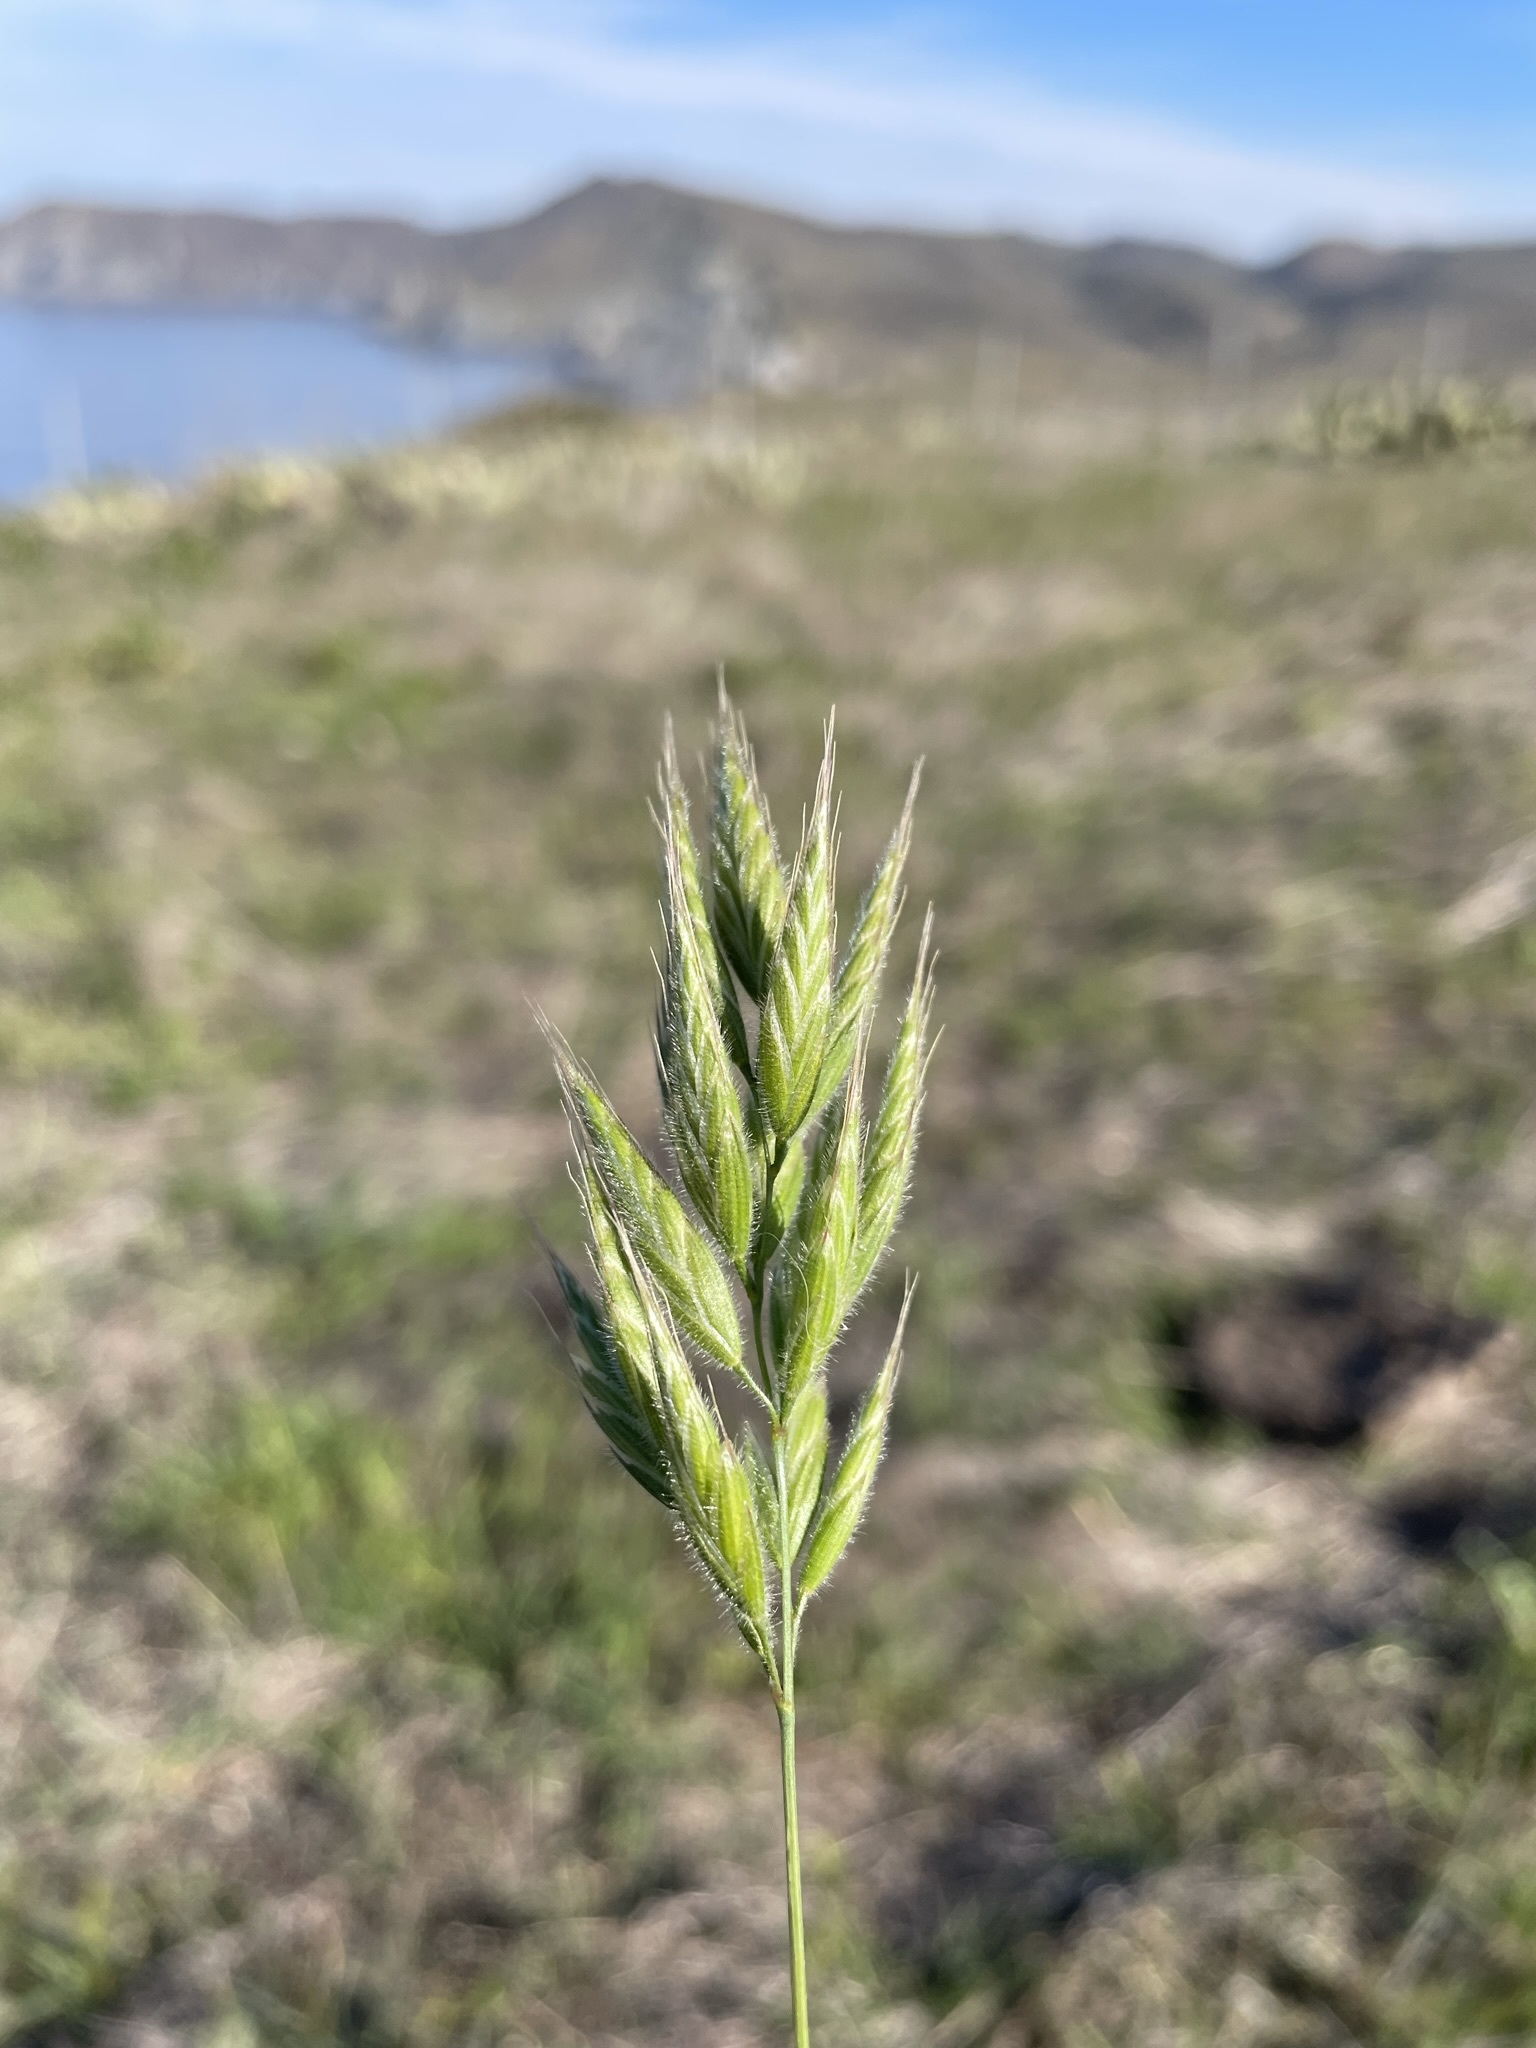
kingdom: Plantae
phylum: Tracheophyta
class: Liliopsida
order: Poales
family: Poaceae
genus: Bromus
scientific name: Bromus hordeaceus
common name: Soft brome
